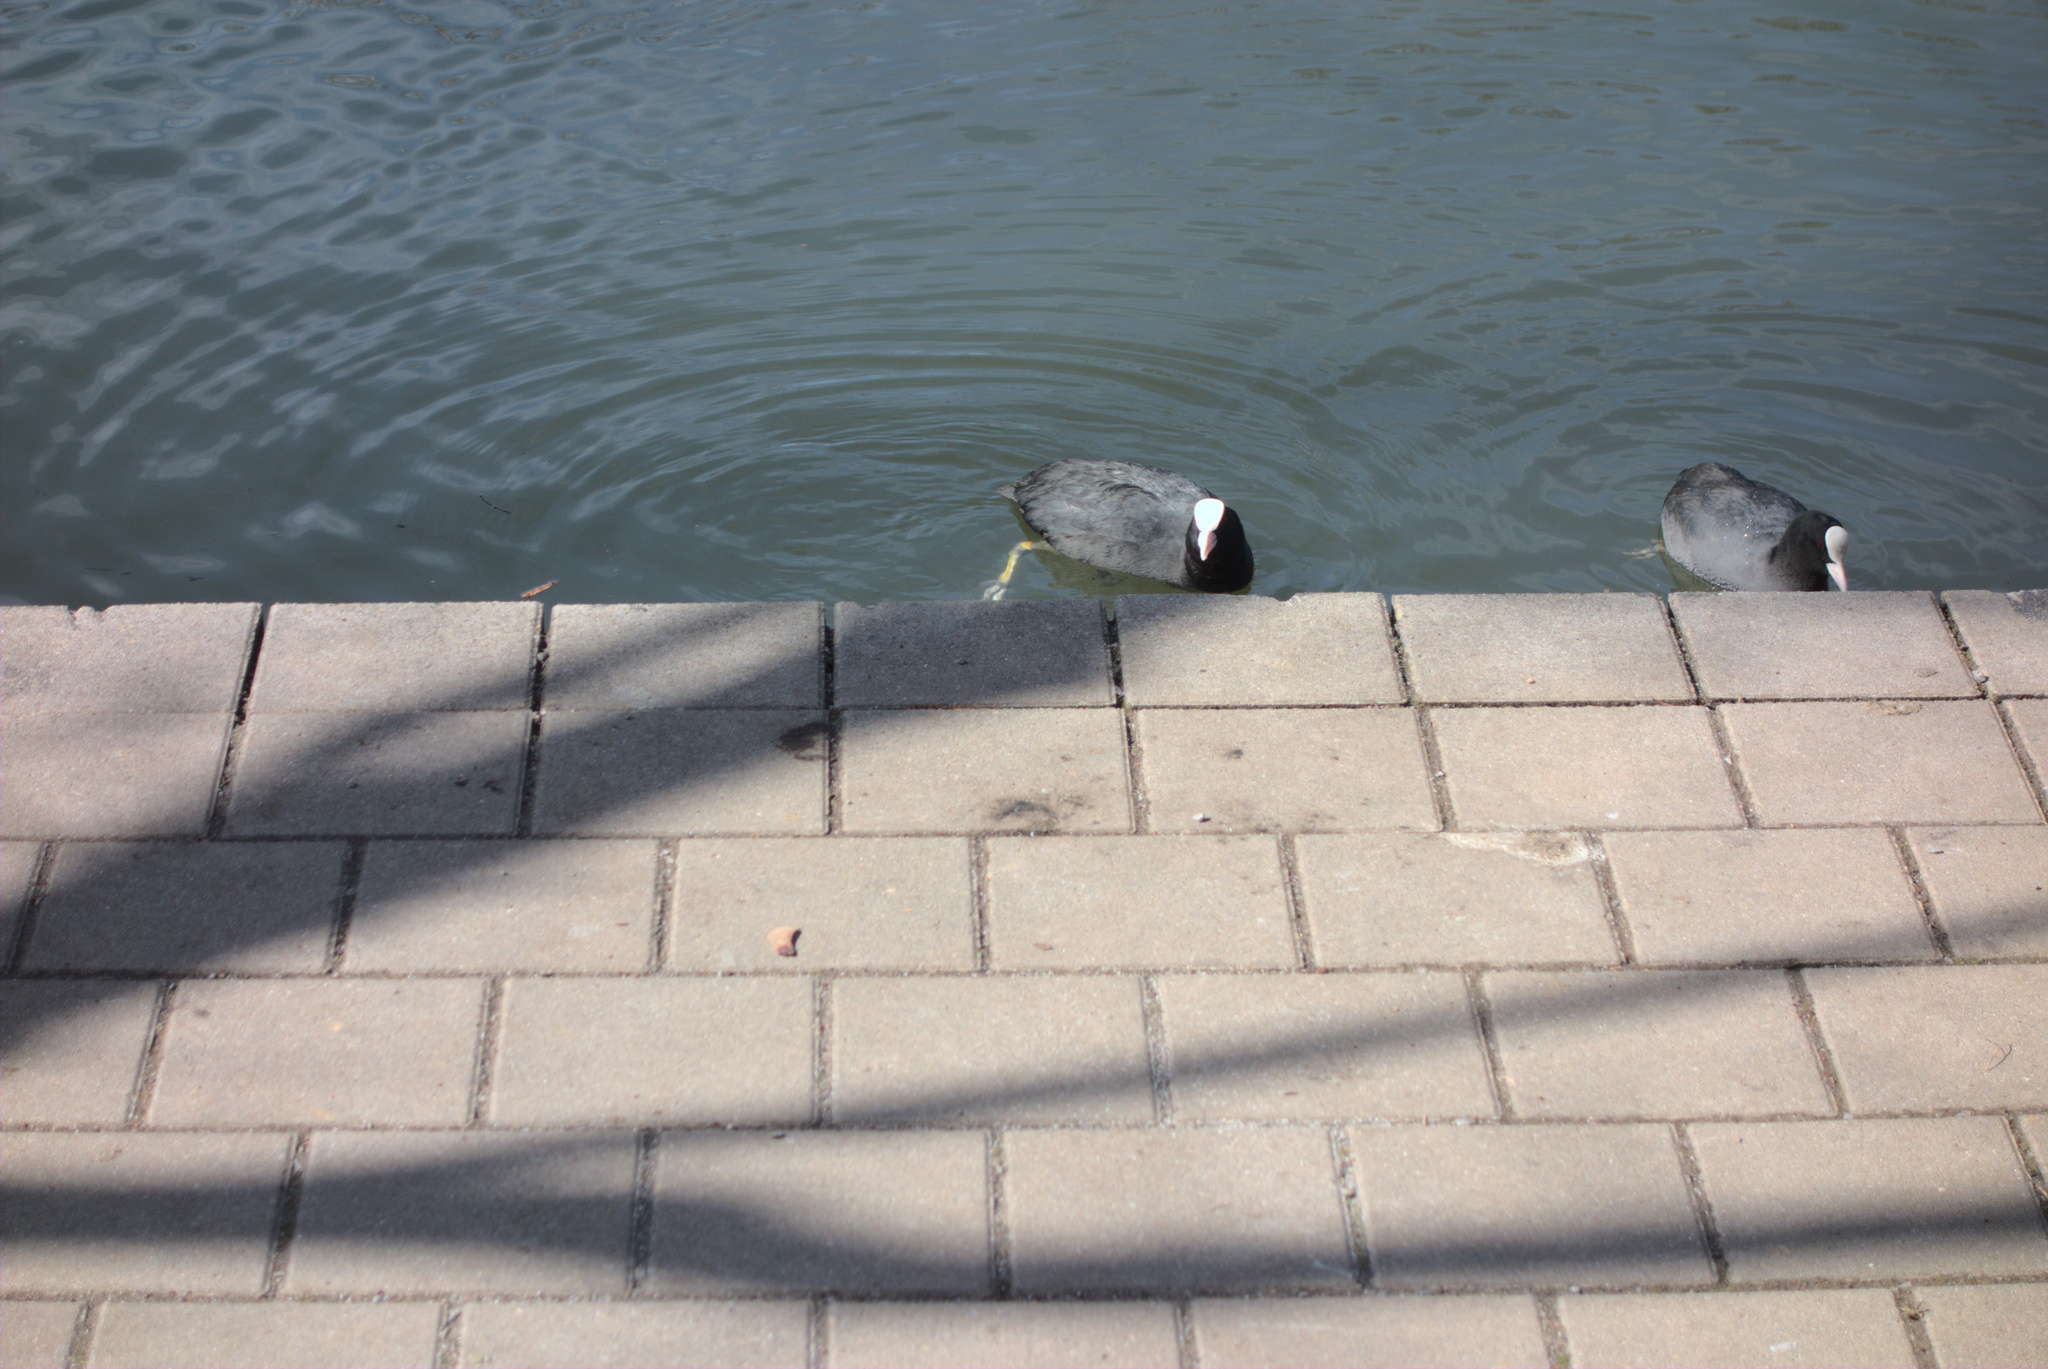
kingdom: Animalia
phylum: Chordata
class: Aves
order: Gruiformes
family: Rallidae
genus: Fulica
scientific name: Fulica atra
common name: Eurasian coot
